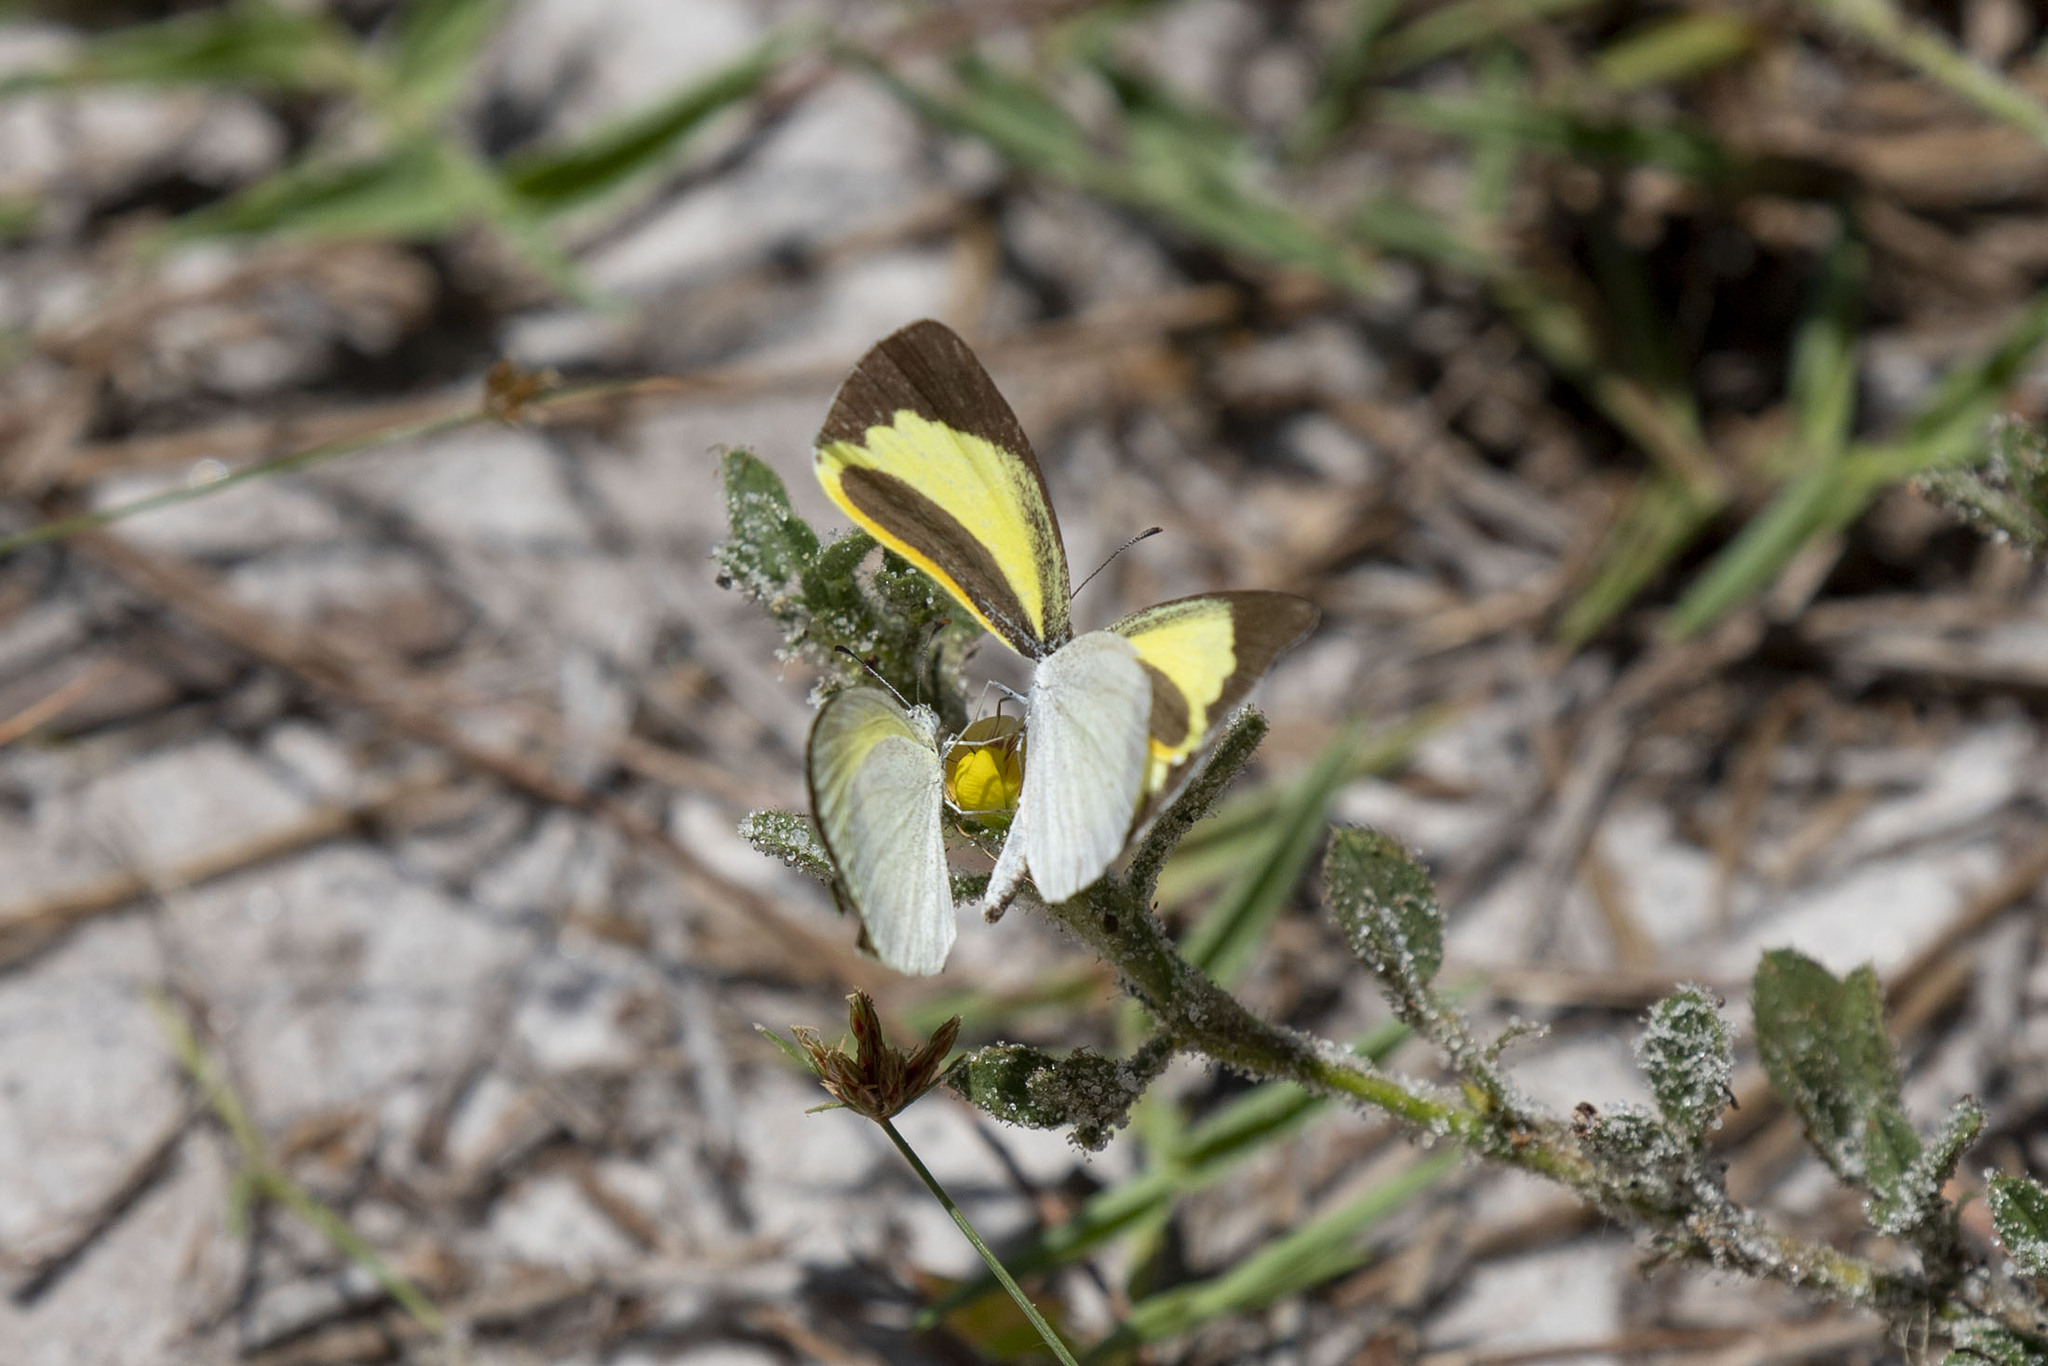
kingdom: Animalia
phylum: Arthropoda
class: Insecta
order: Lepidoptera
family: Pieridae
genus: Eurema
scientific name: Eurema daira
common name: Barred sulphur
